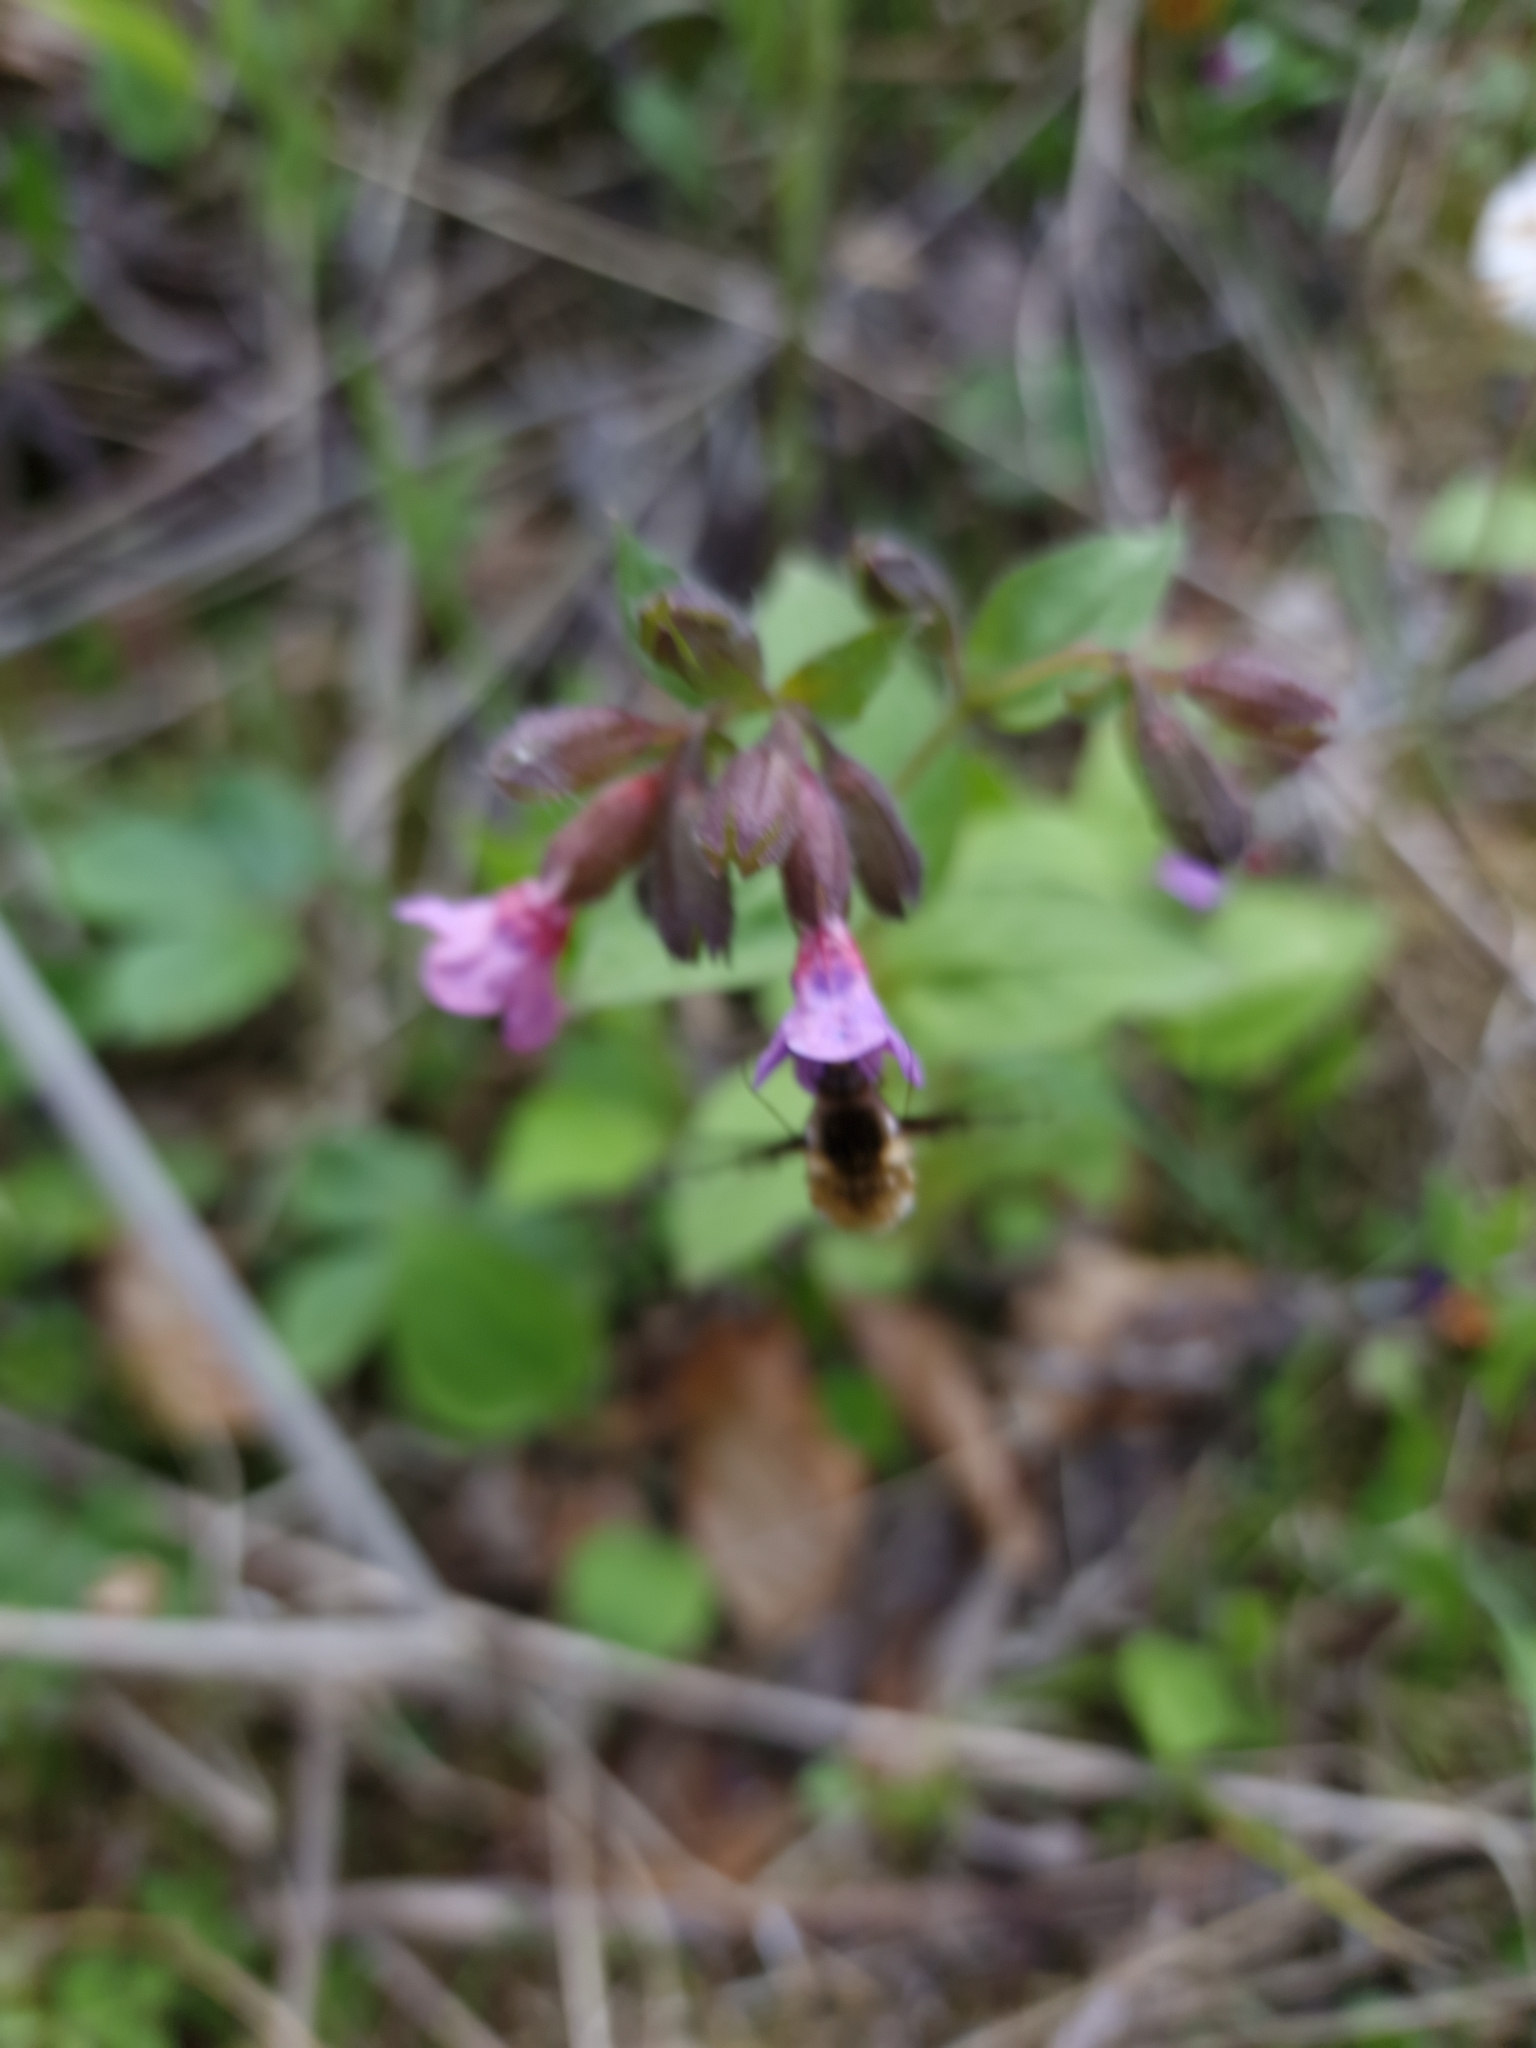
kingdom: Animalia
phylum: Arthropoda
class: Insecta
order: Diptera
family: Bombyliidae
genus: Bombylius
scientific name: Bombylius major
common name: Bee fly
